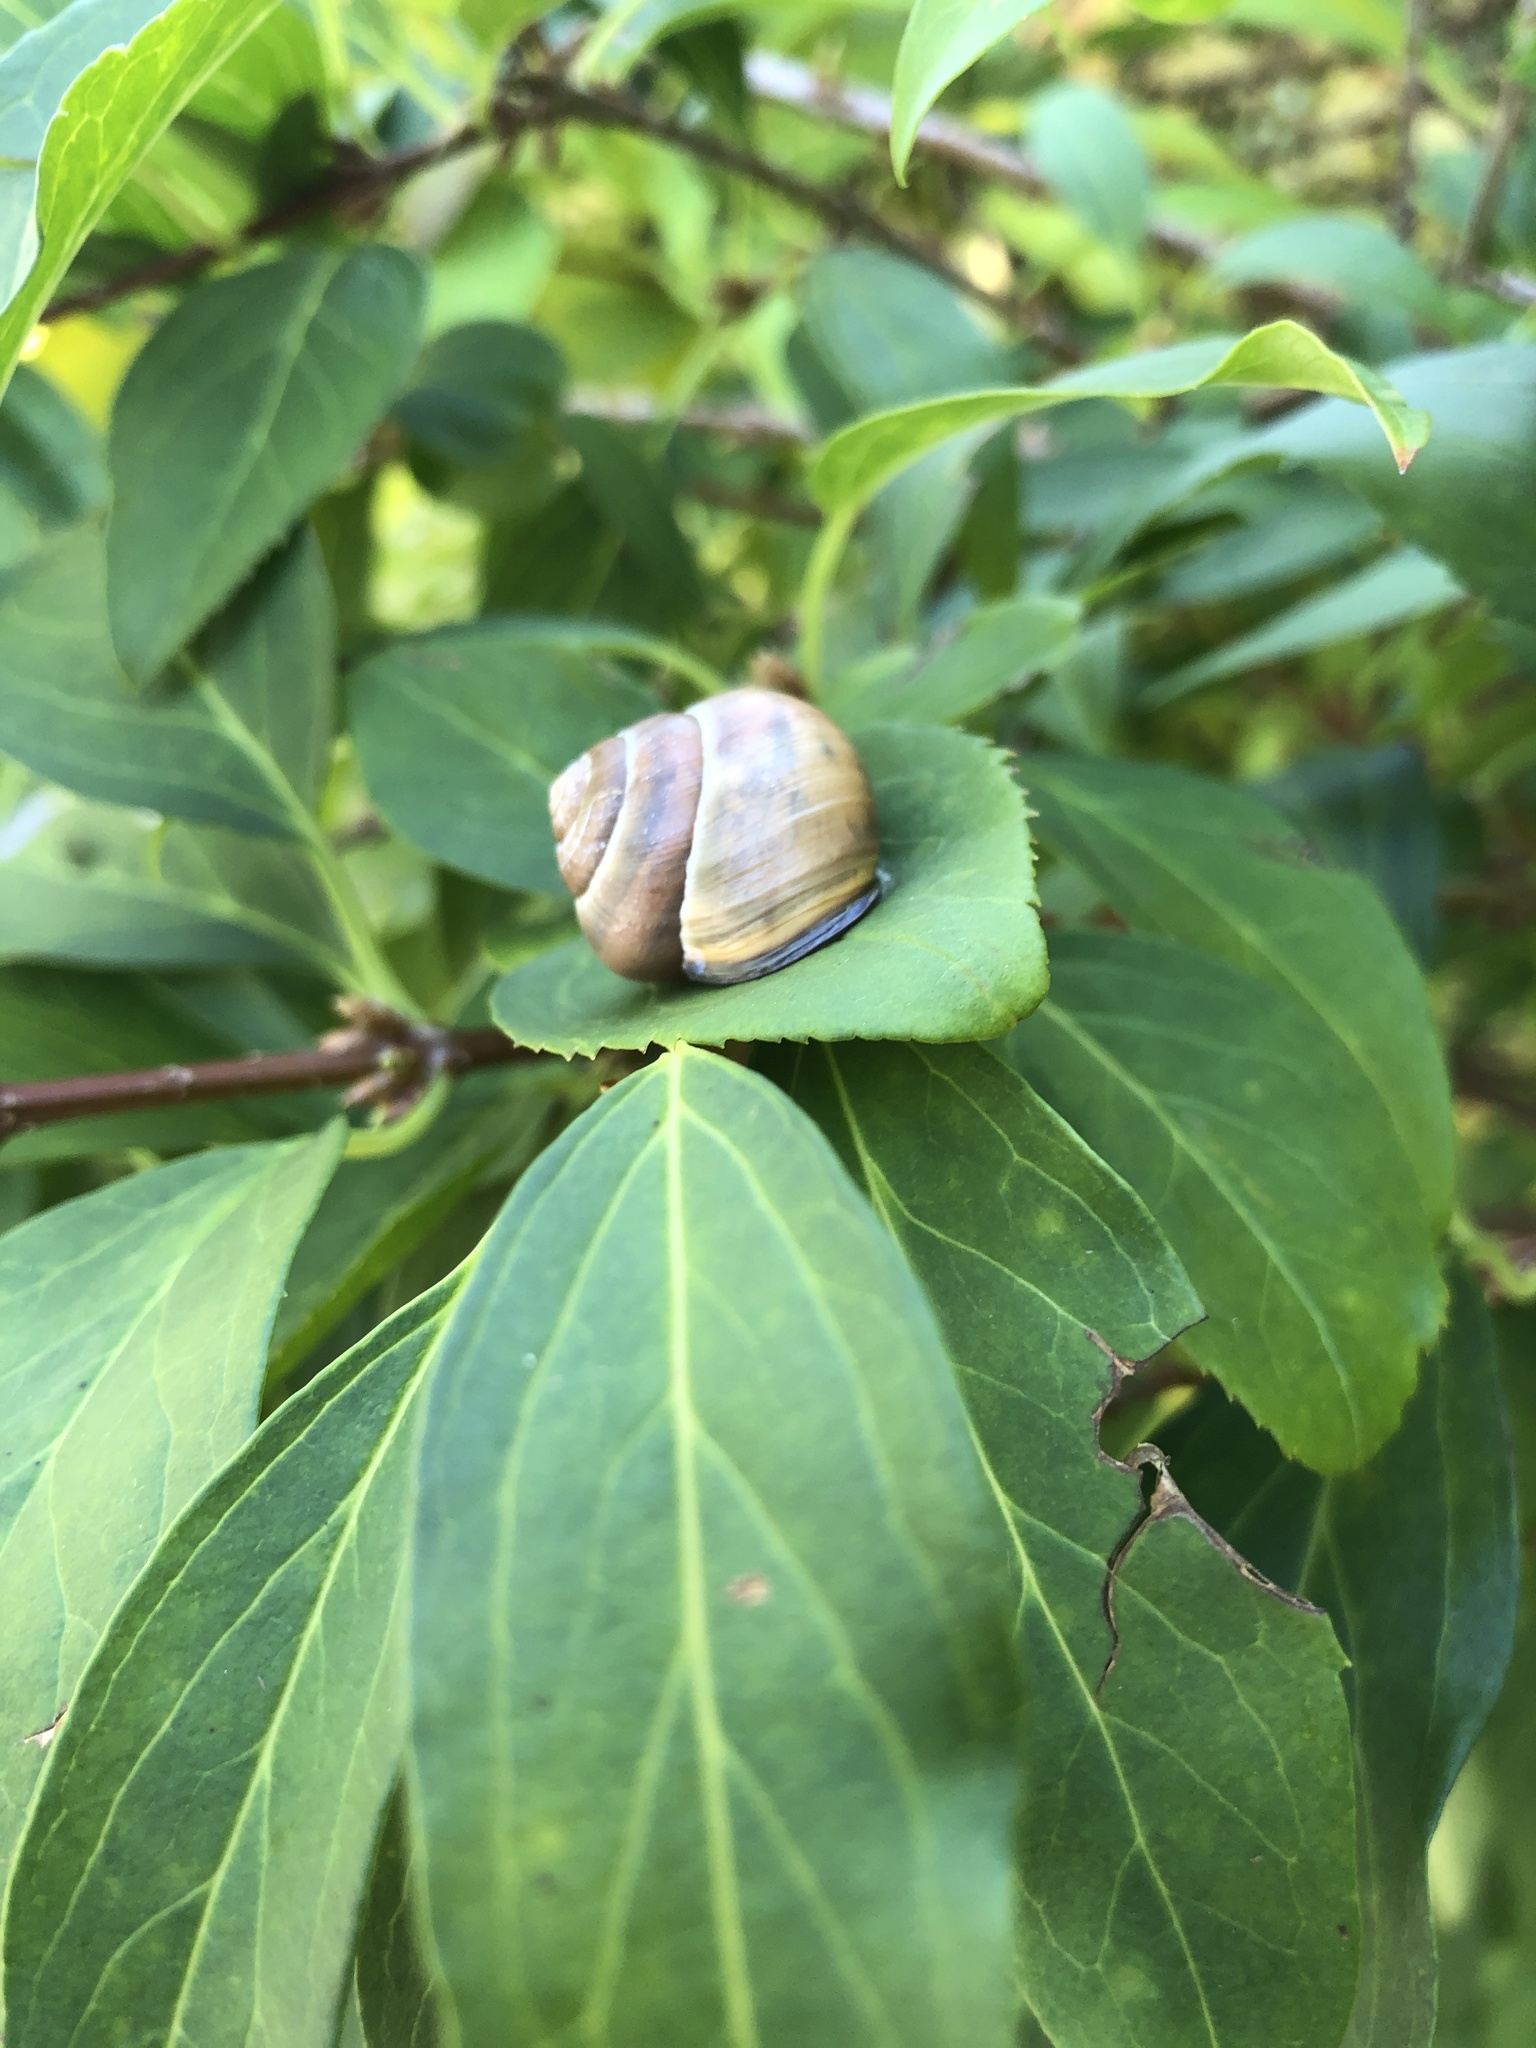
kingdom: Animalia
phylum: Mollusca
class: Gastropoda
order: Stylommatophora
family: Helicidae
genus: Cepaea
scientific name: Cepaea nemoralis
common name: Grovesnail
